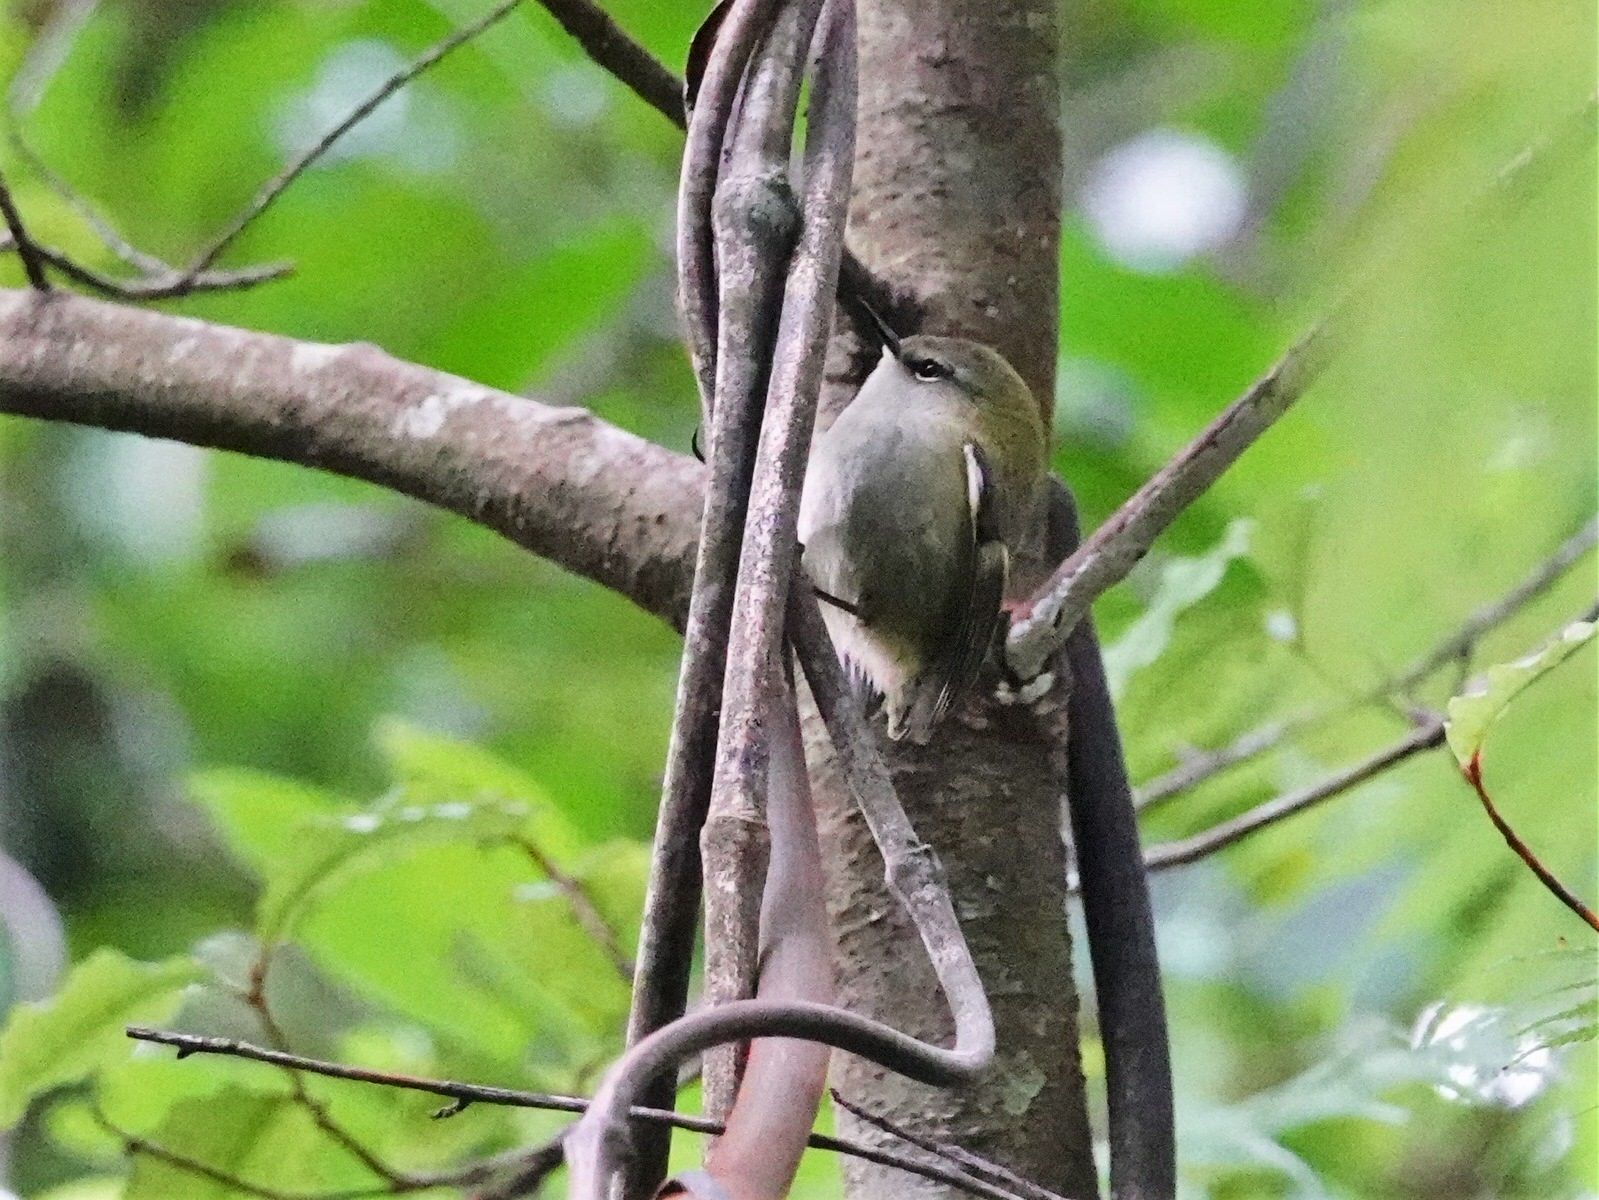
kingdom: Animalia
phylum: Chordata
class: Aves
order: Passeriformes
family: Acanthisittidae
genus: Acanthisitta
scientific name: Acanthisitta chloris
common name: Rifleman
